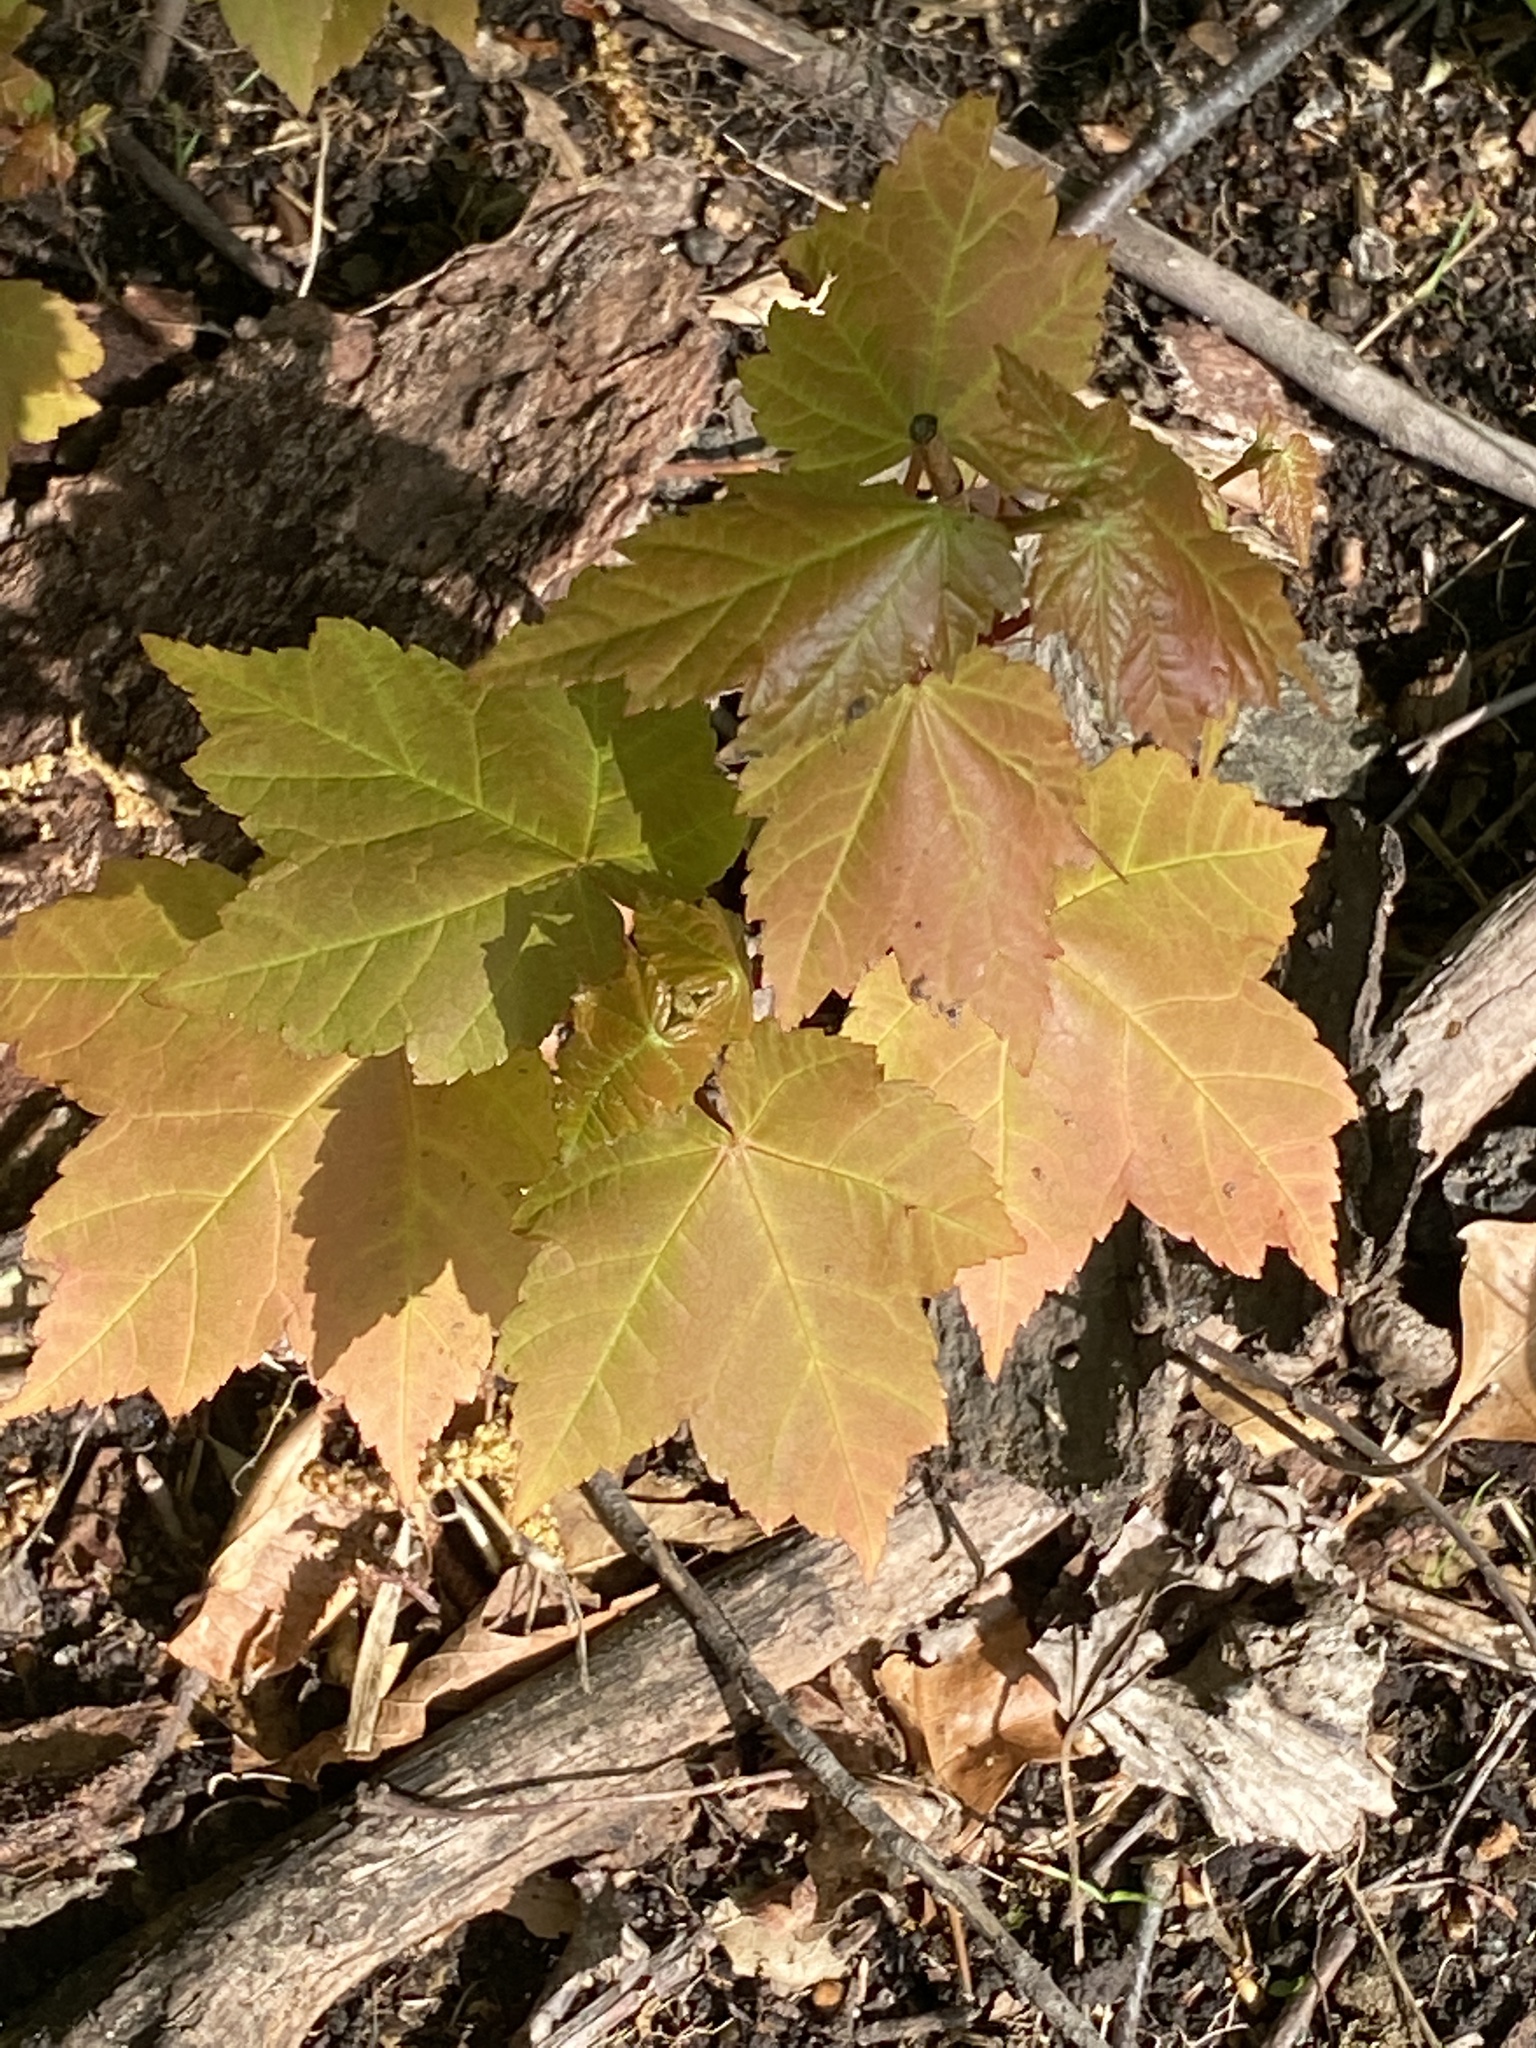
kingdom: Plantae
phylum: Tracheophyta
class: Magnoliopsida
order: Sapindales
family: Sapindaceae
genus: Acer
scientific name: Acer rubrum
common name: Red maple
